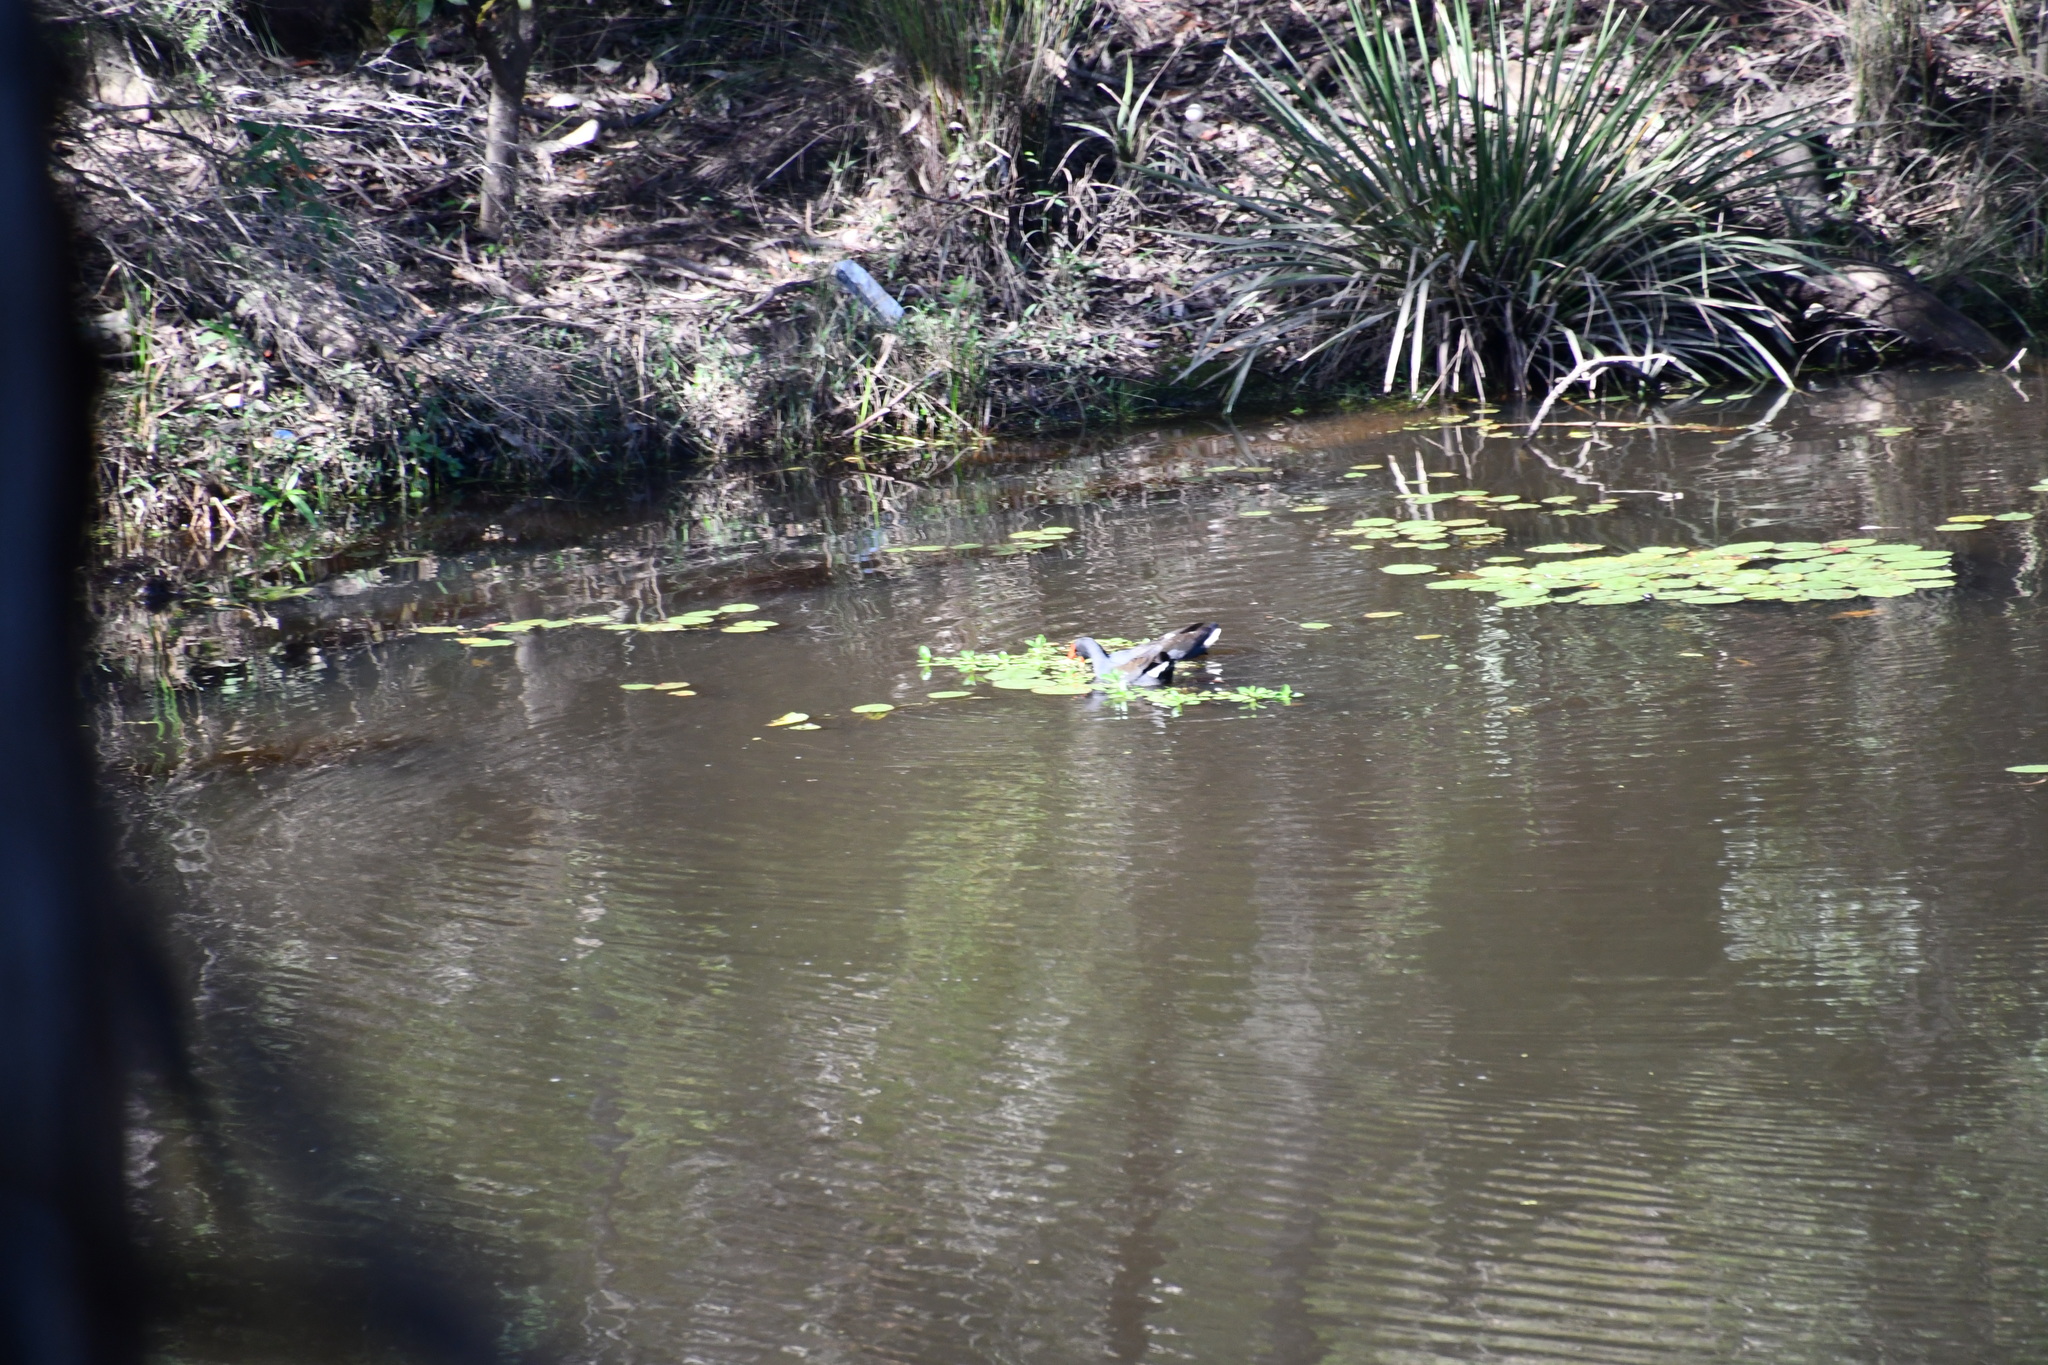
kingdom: Animalia
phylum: Chordata
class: Aves
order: Gruiformes
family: Rallidae
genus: Gallinula
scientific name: Gallinula tenebrosa
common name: Dusky moorhen
